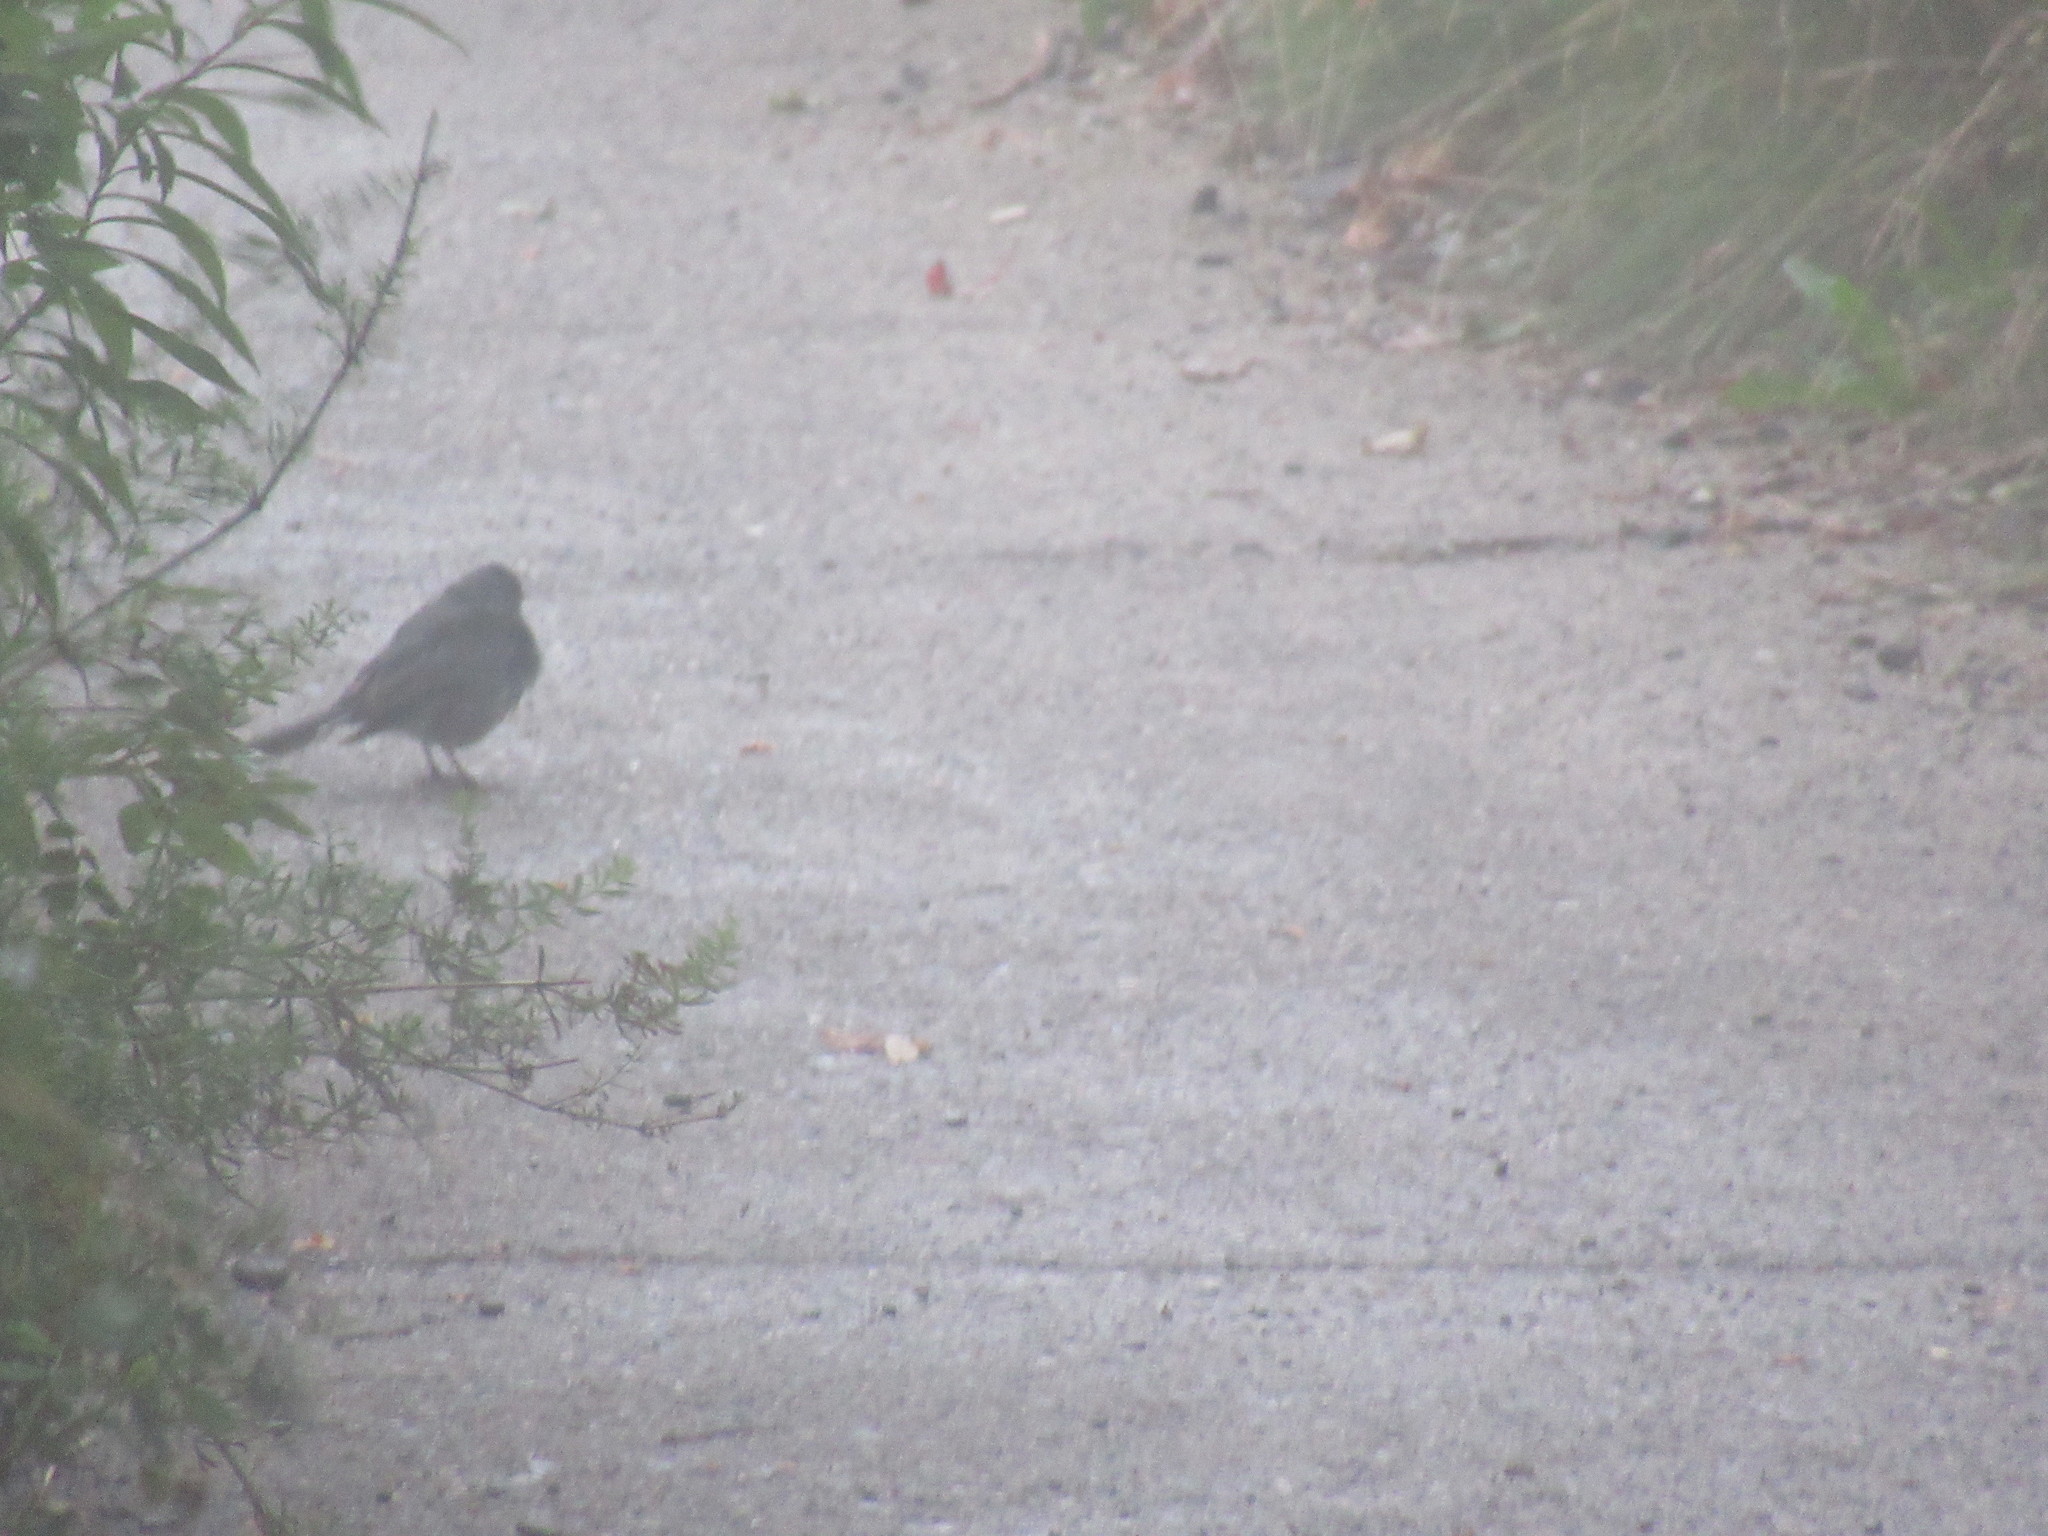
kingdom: Animalia
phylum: Chordata
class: Aves
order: Passeriformes
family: Passerellidae
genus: Junco
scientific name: Junco hyemalis
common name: Dark-eyed junco
